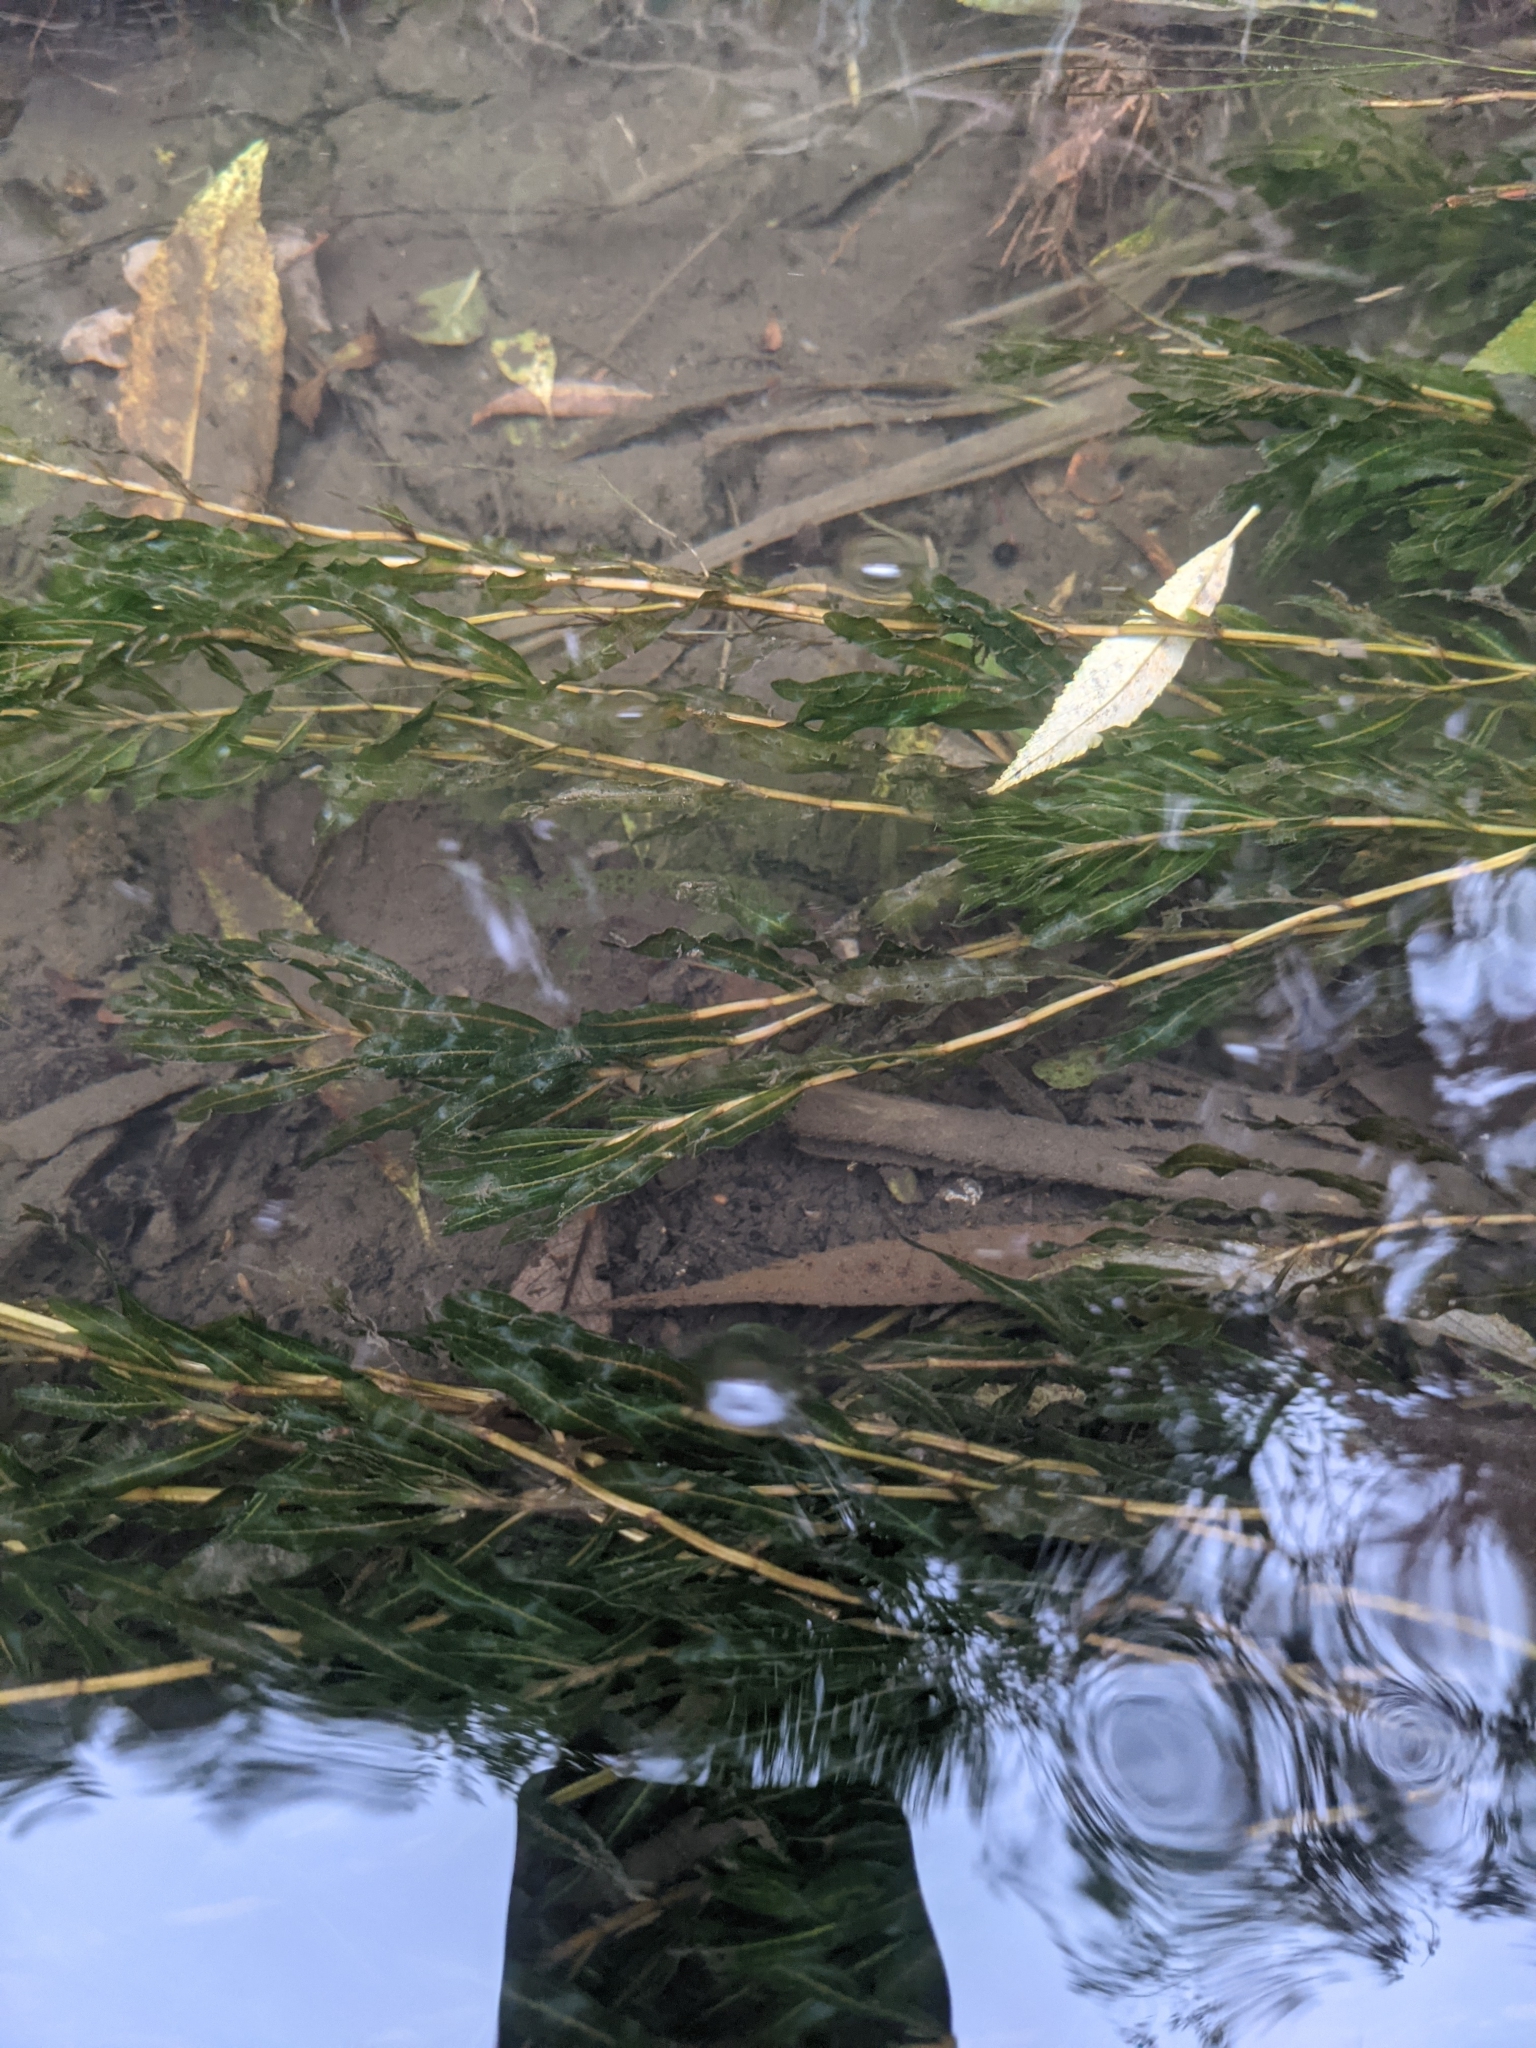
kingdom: Plantae
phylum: Tracheophyta
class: Liliopsida
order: Alismatales
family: Potamogetonaceae
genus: Potamogeton
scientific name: Potamogeton crispus
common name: Curled pondweed
